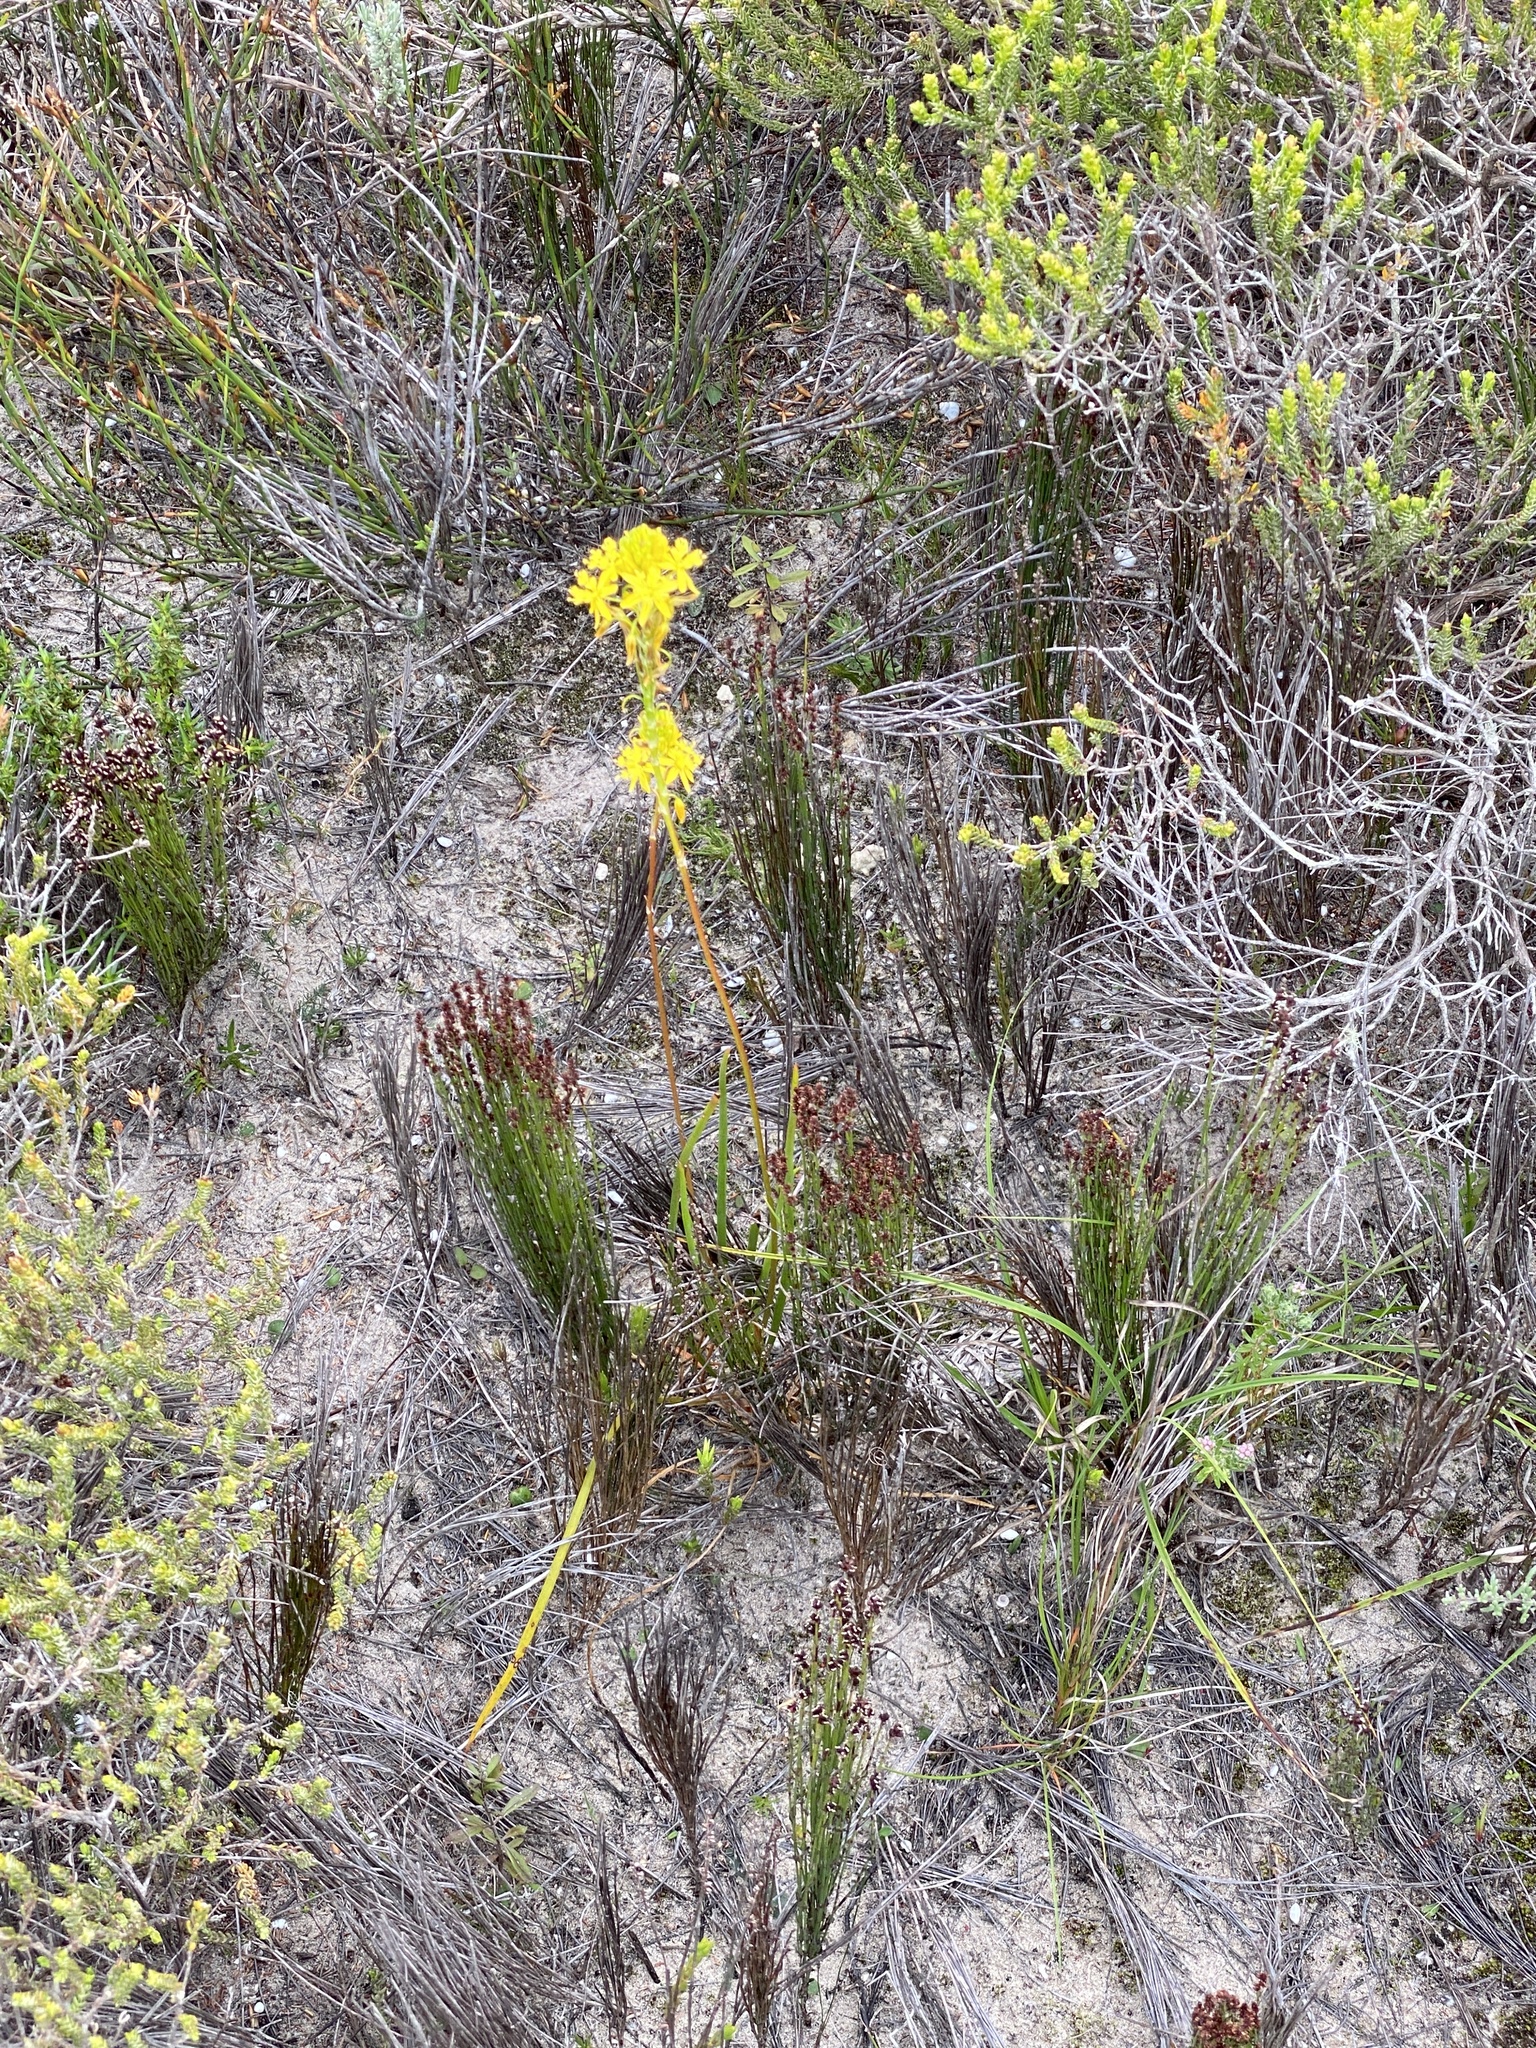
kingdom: Plantae
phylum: Tracheophyta
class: Liliopsida
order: Asparagales
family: Asphodelaceae
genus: Bulbine
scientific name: Bulbine frutescens
